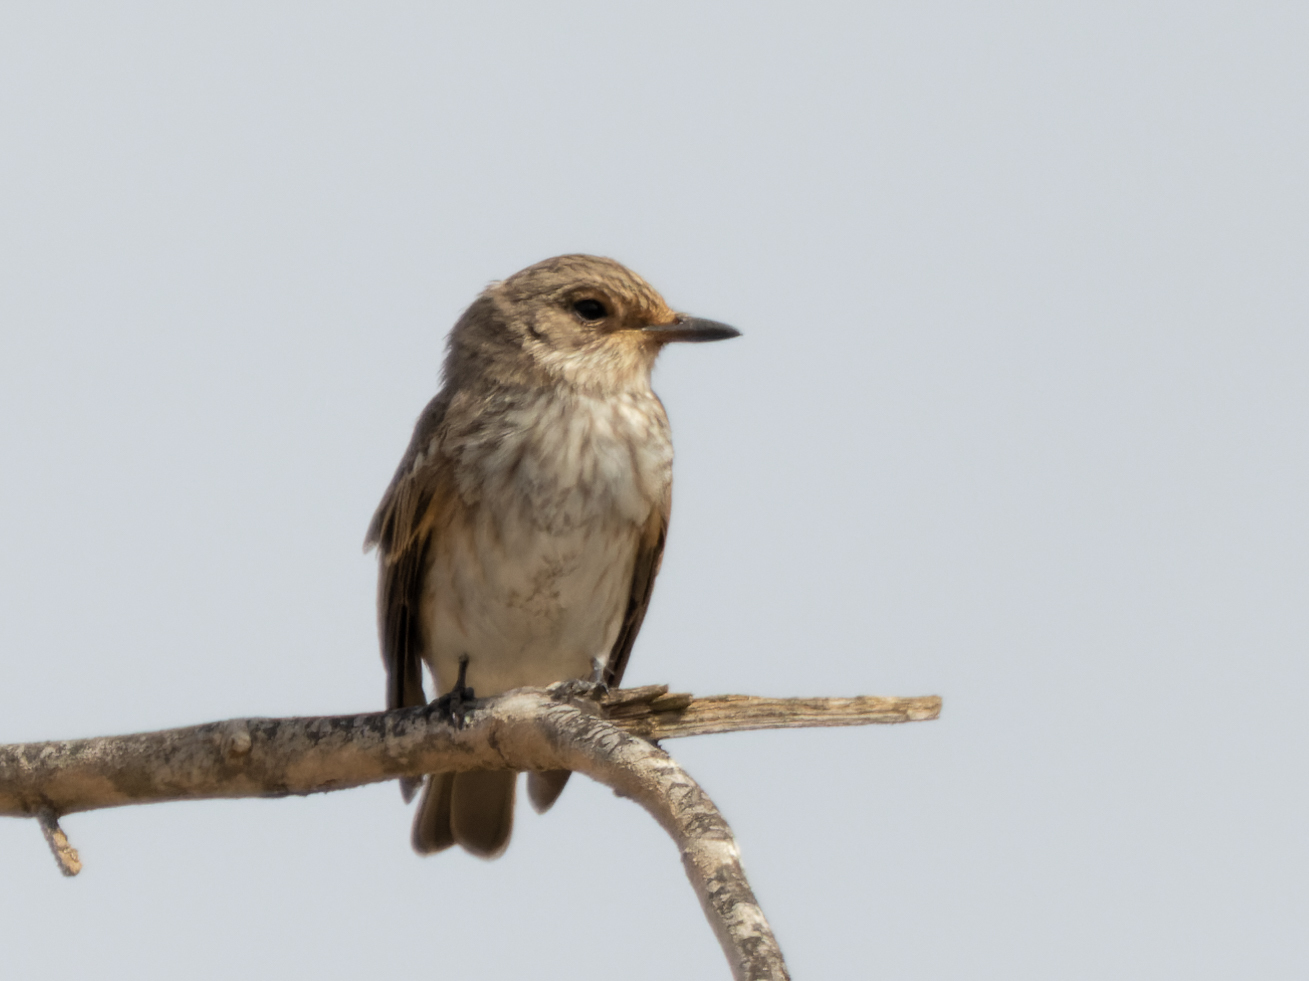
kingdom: Animalia
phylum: Chordata
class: Aves
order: Passeriformes
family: Muscicapidae
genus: Muscicapa
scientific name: Muscicapa striata
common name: Spotted flycatcher
